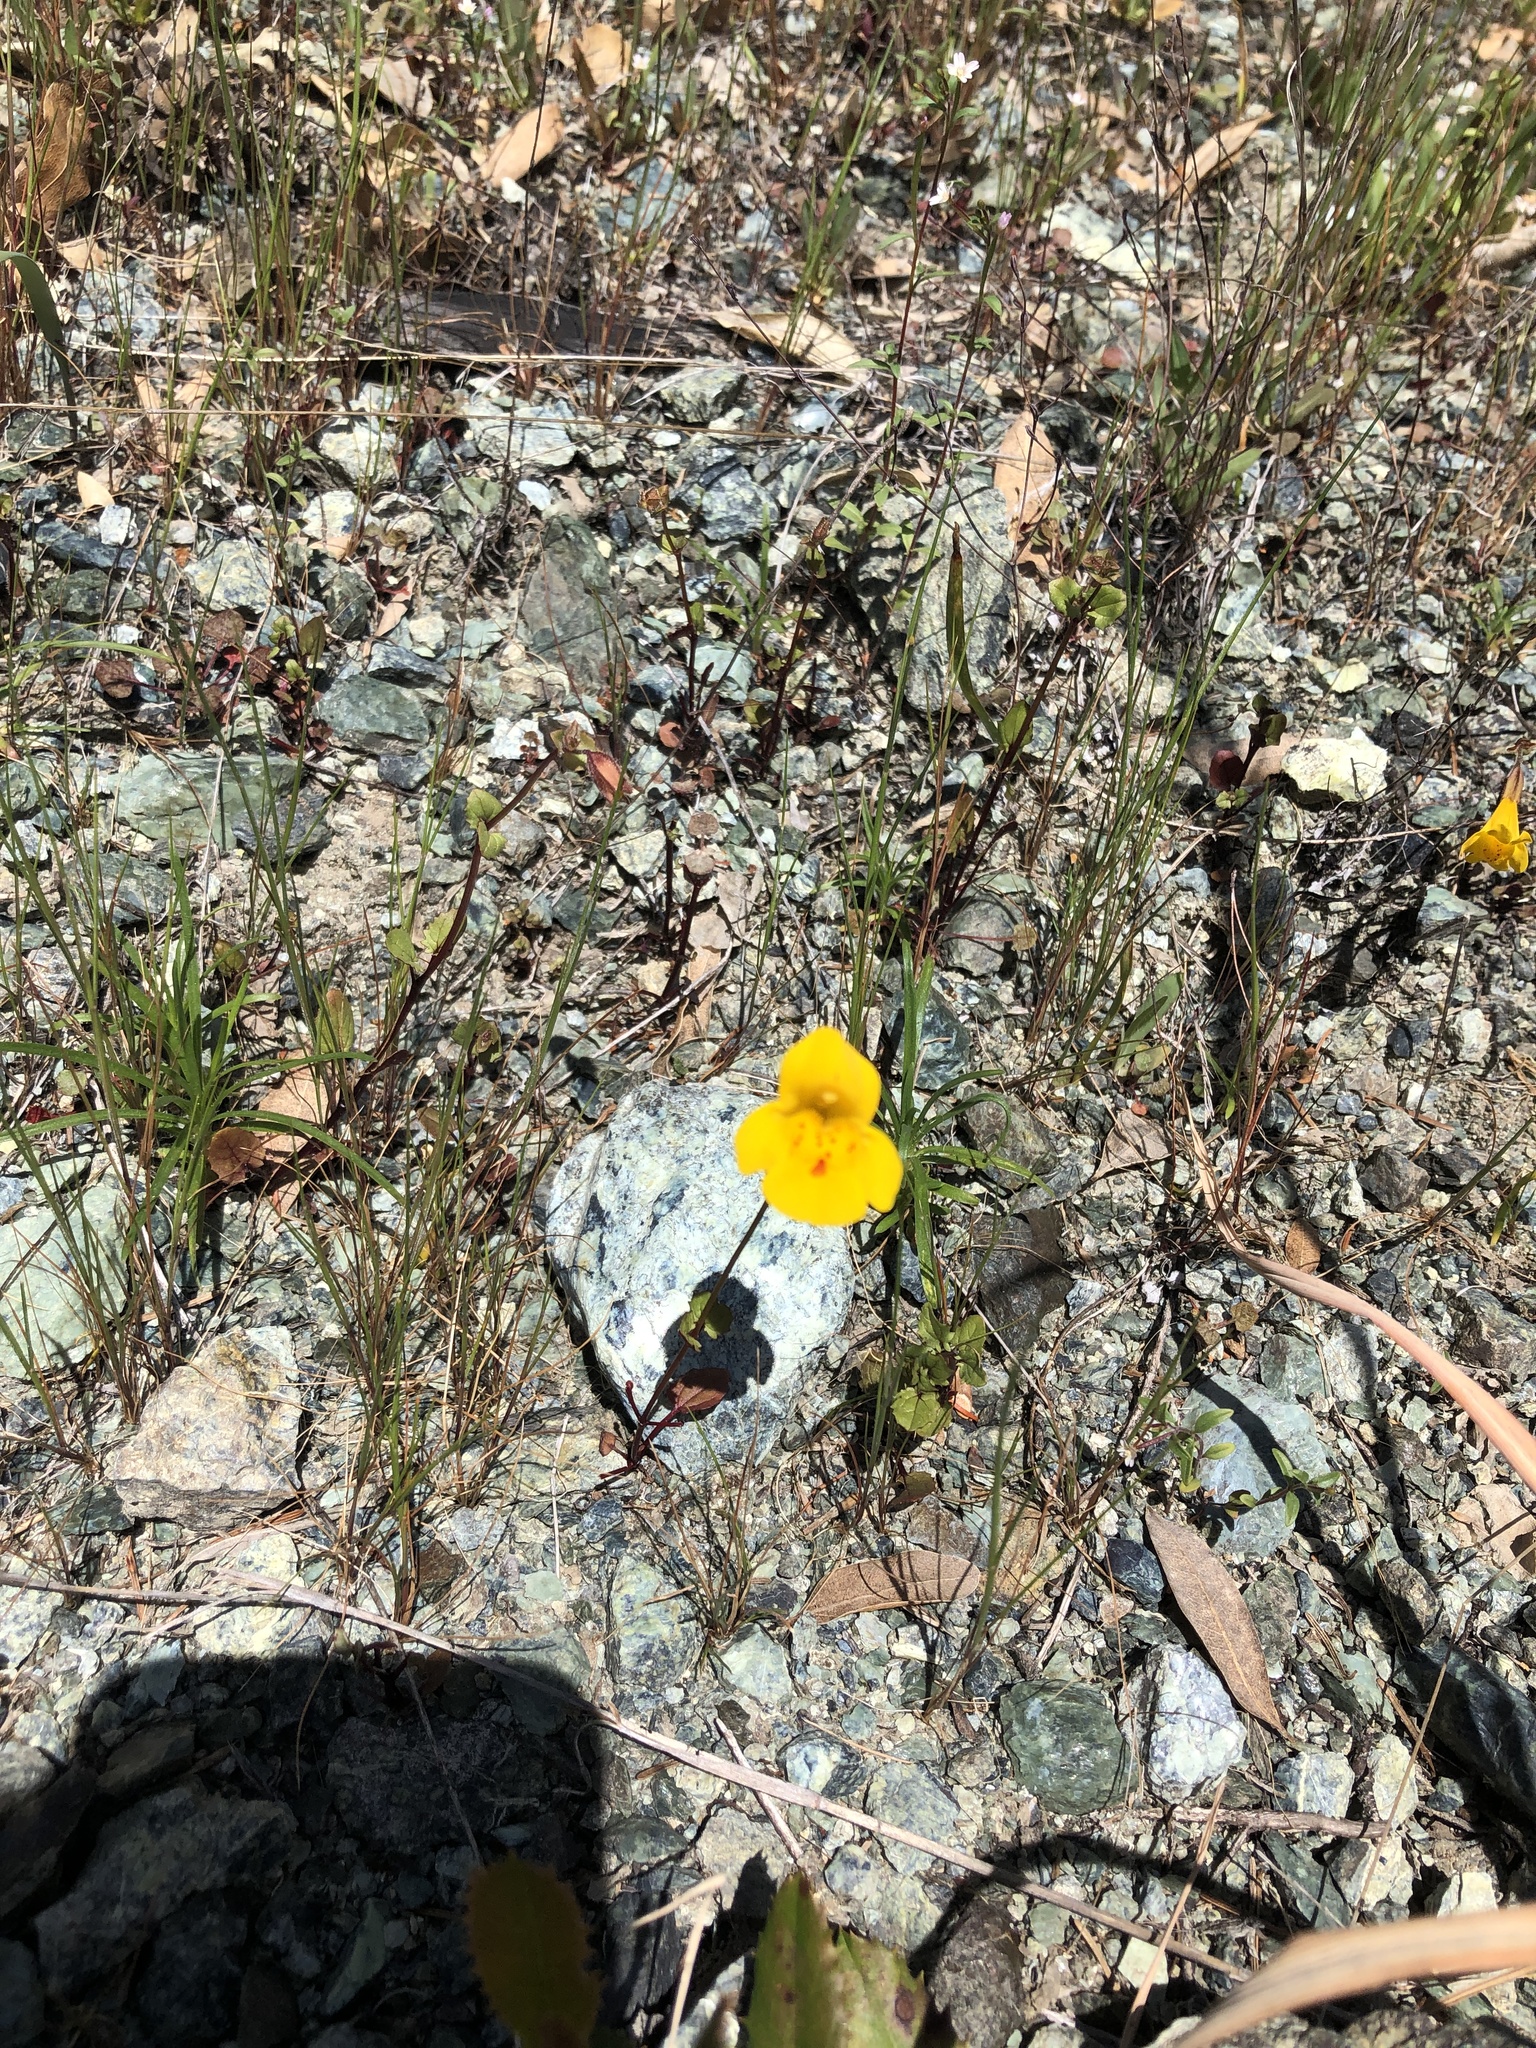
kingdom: Plantae
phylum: Tracheophyta
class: Magnoliopsida
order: Lamiales
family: Phrymaceae
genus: Erythranthe
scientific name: Erythranthe guttata
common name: Monkeyflower
